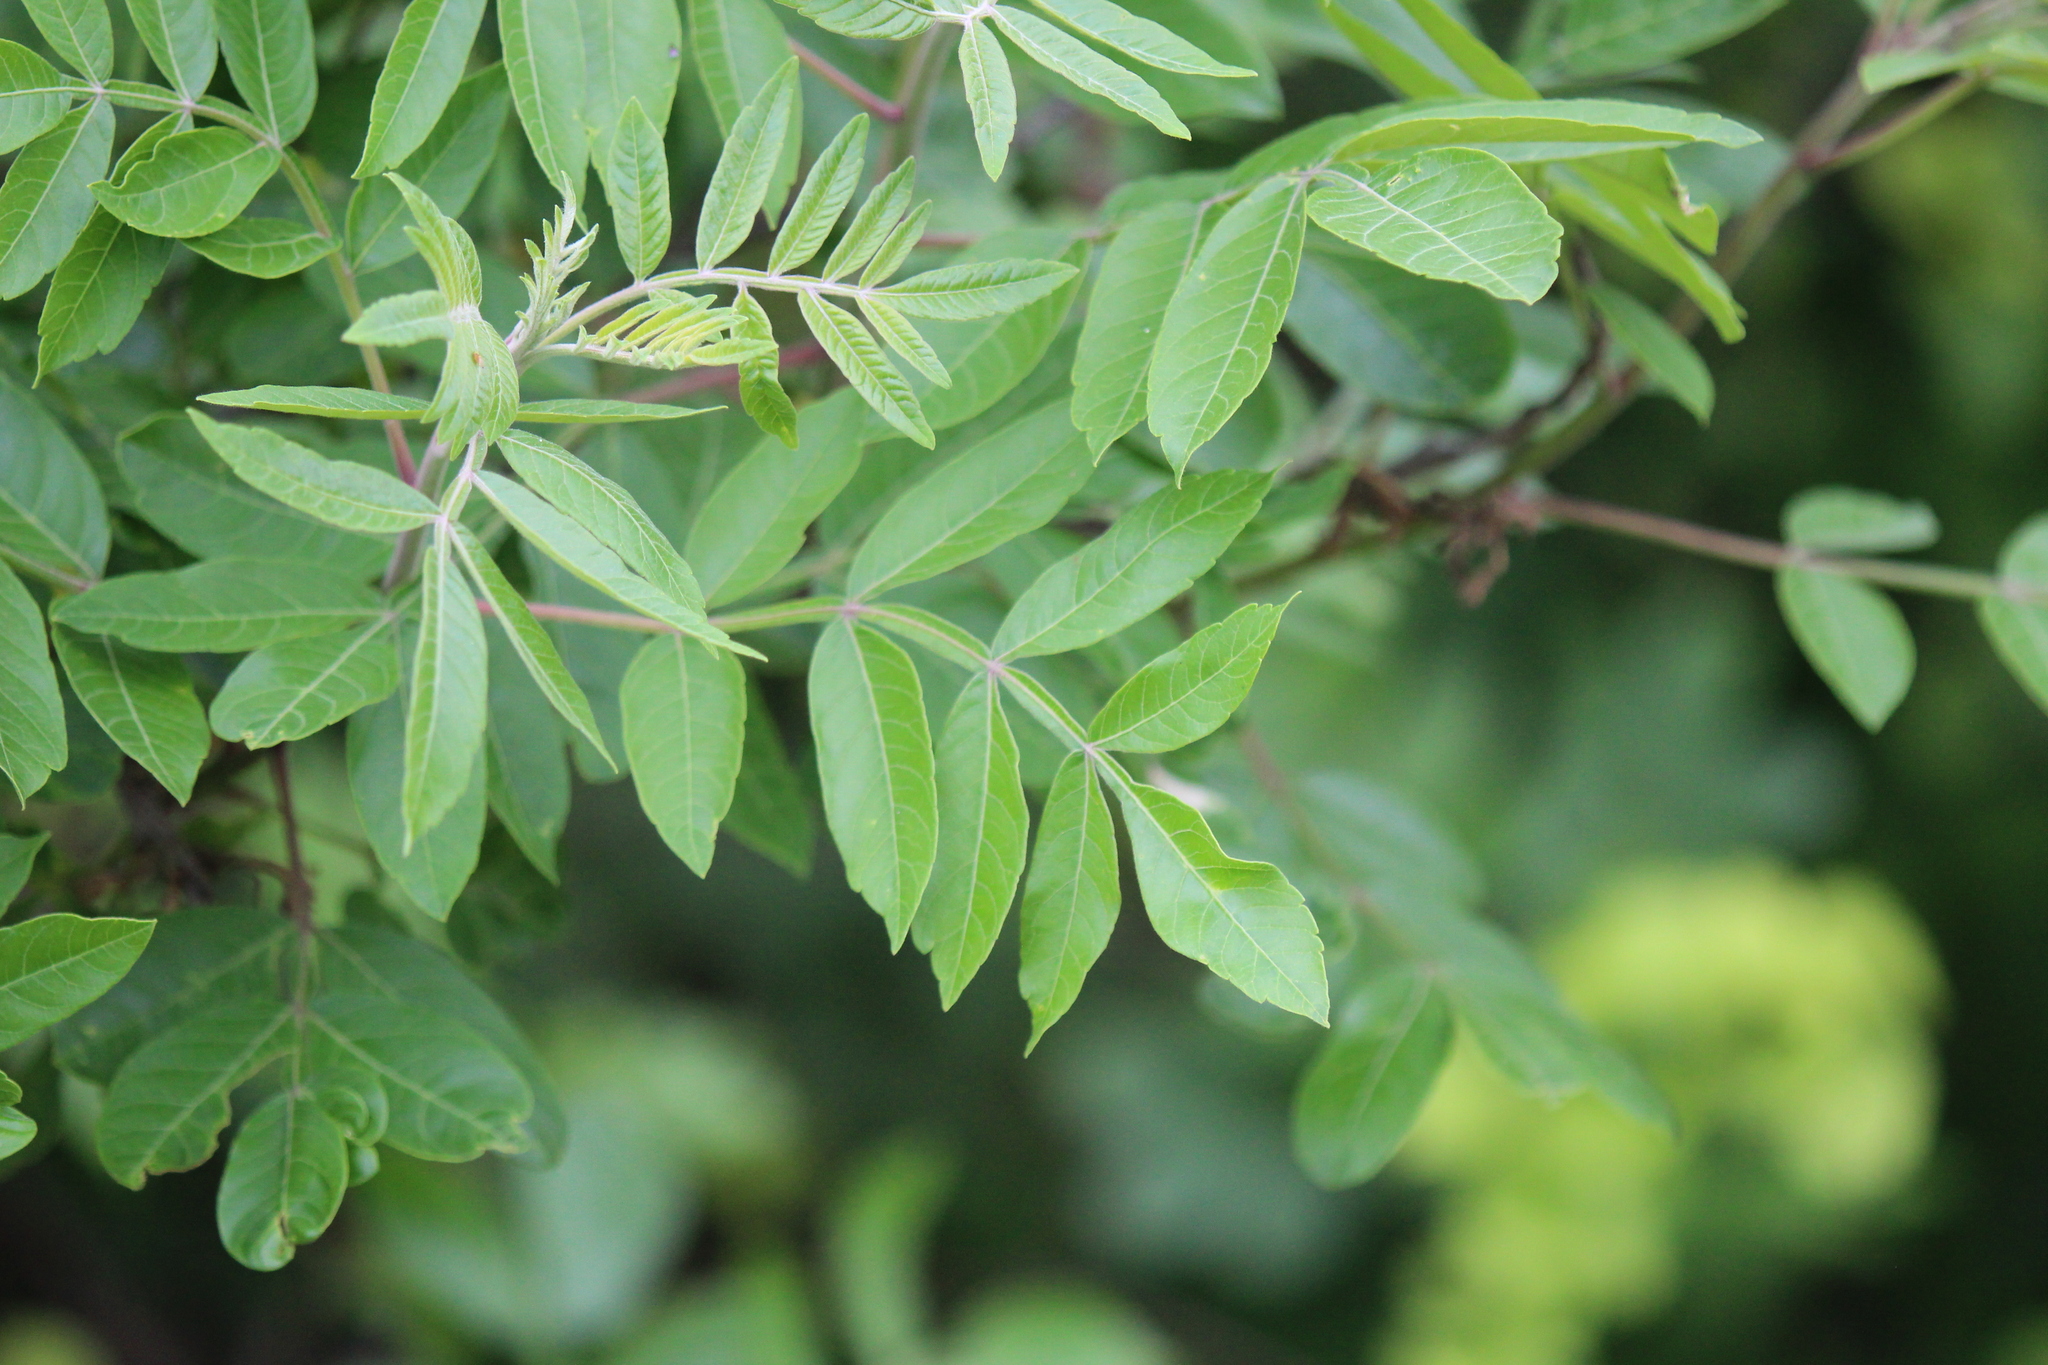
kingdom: Plantae
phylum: Tracheophyta
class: Magnoliopsida
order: Sapindales
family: Anacardiaceae
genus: Rhus
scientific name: Rhus copallina
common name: Shining sumac
